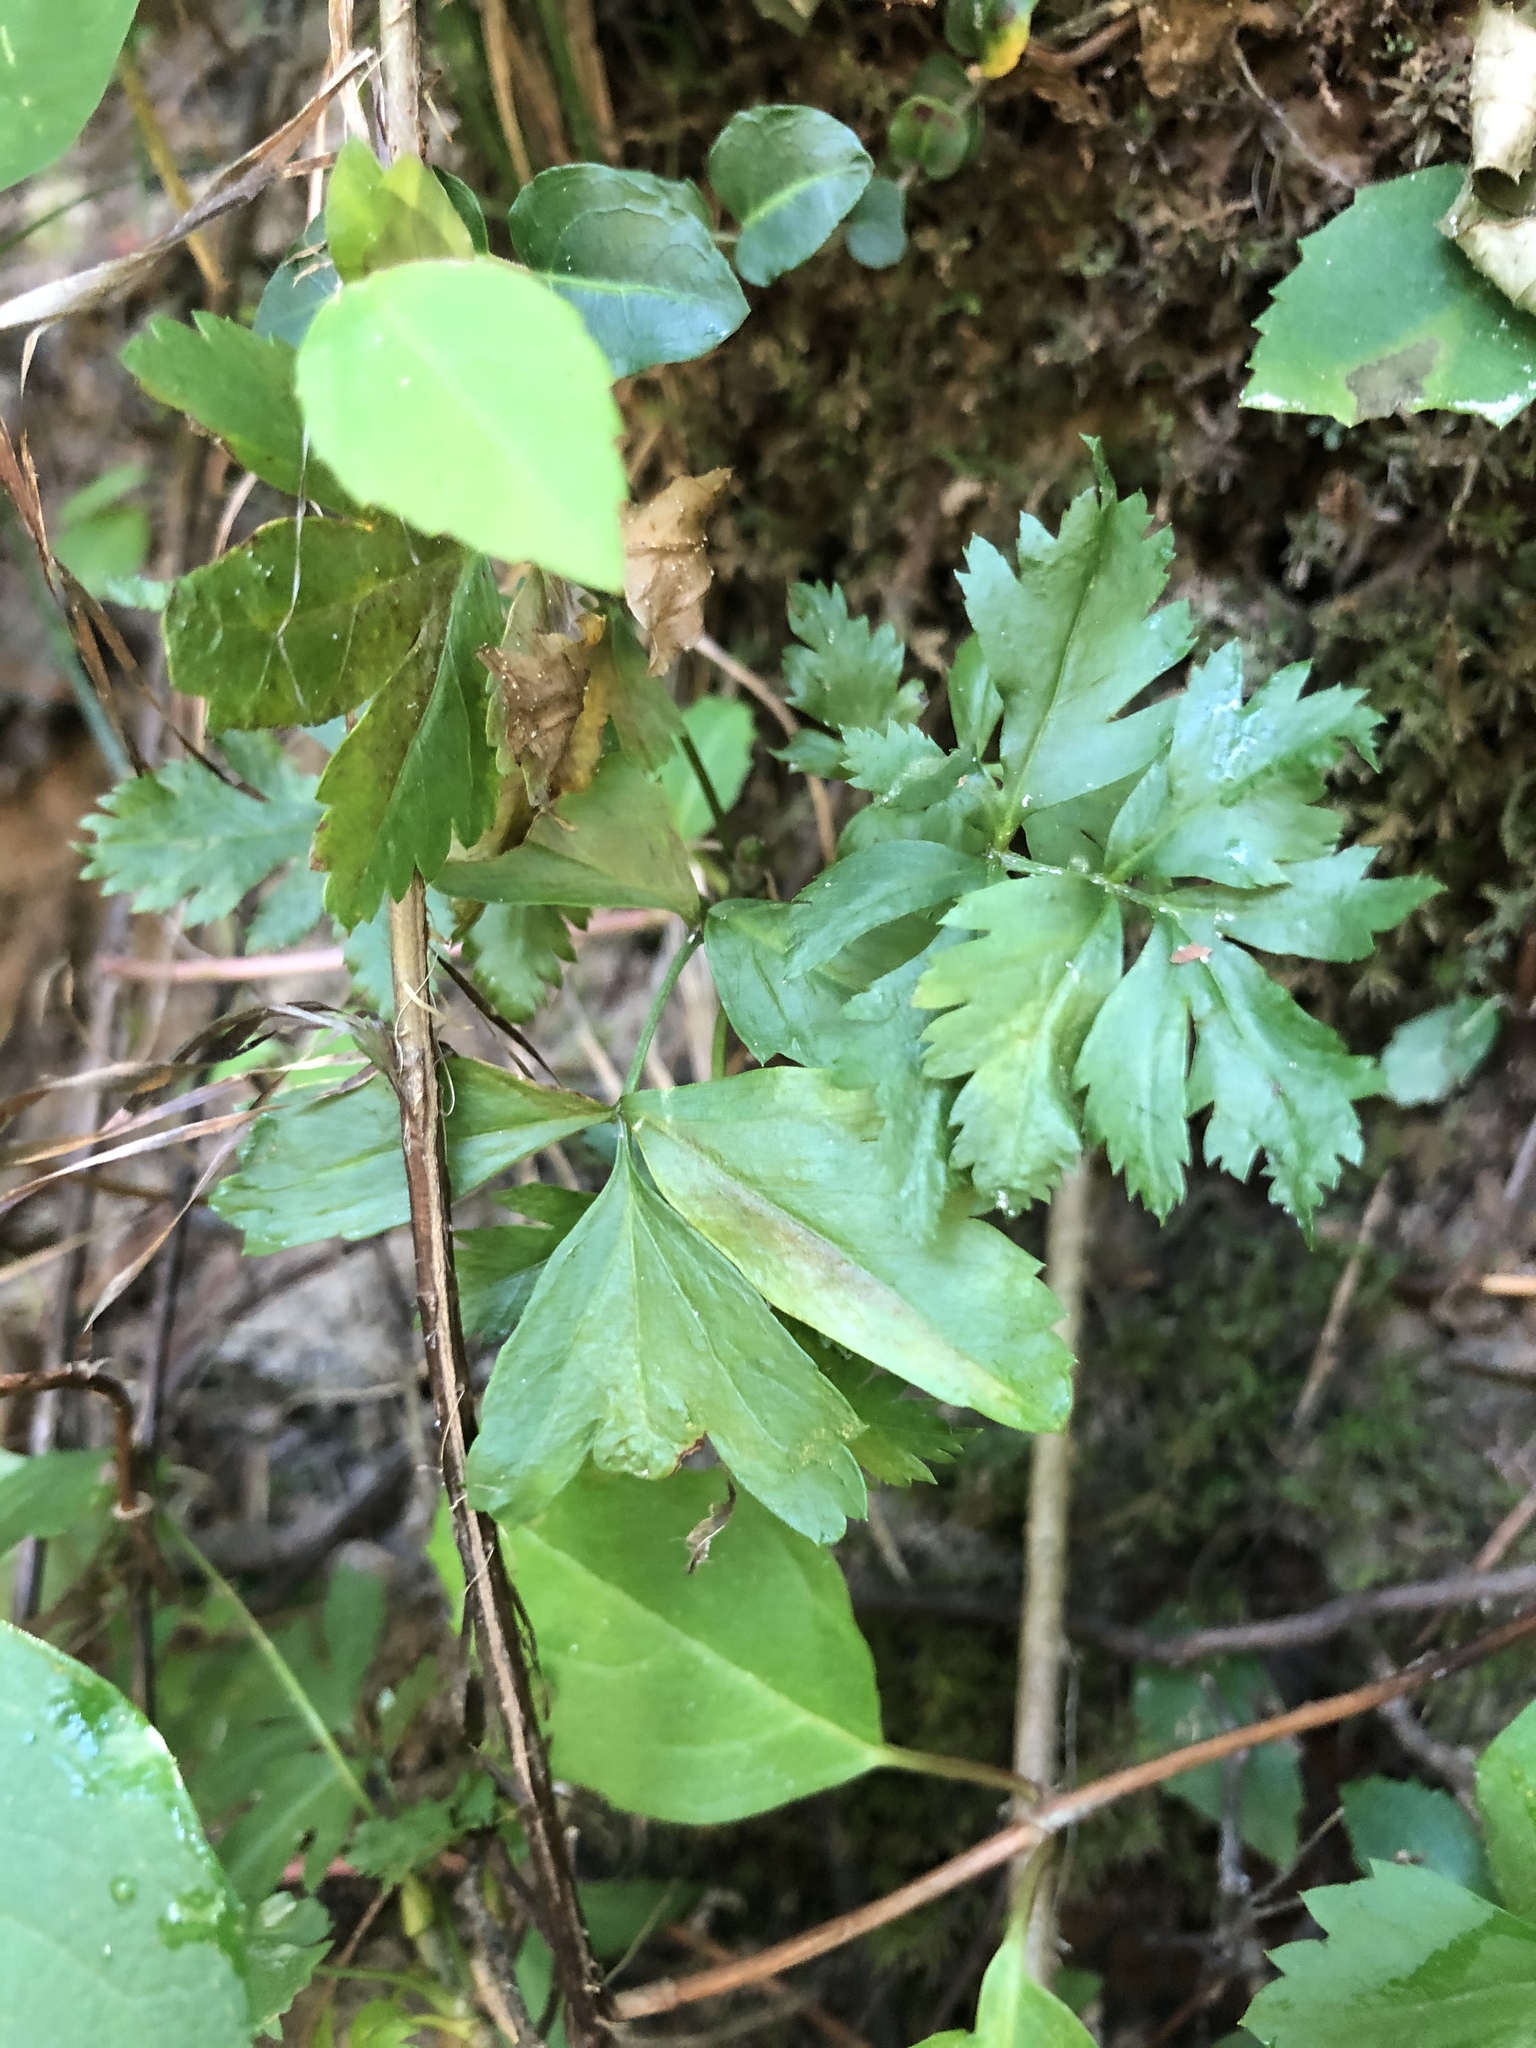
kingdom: Plantae
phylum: Tracheophyta
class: Magnoliopsida
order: Ranunculales
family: Ranunculaceae
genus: Xanthorhiza
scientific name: Xanthorhiza simplicissima
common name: Yellowroot
